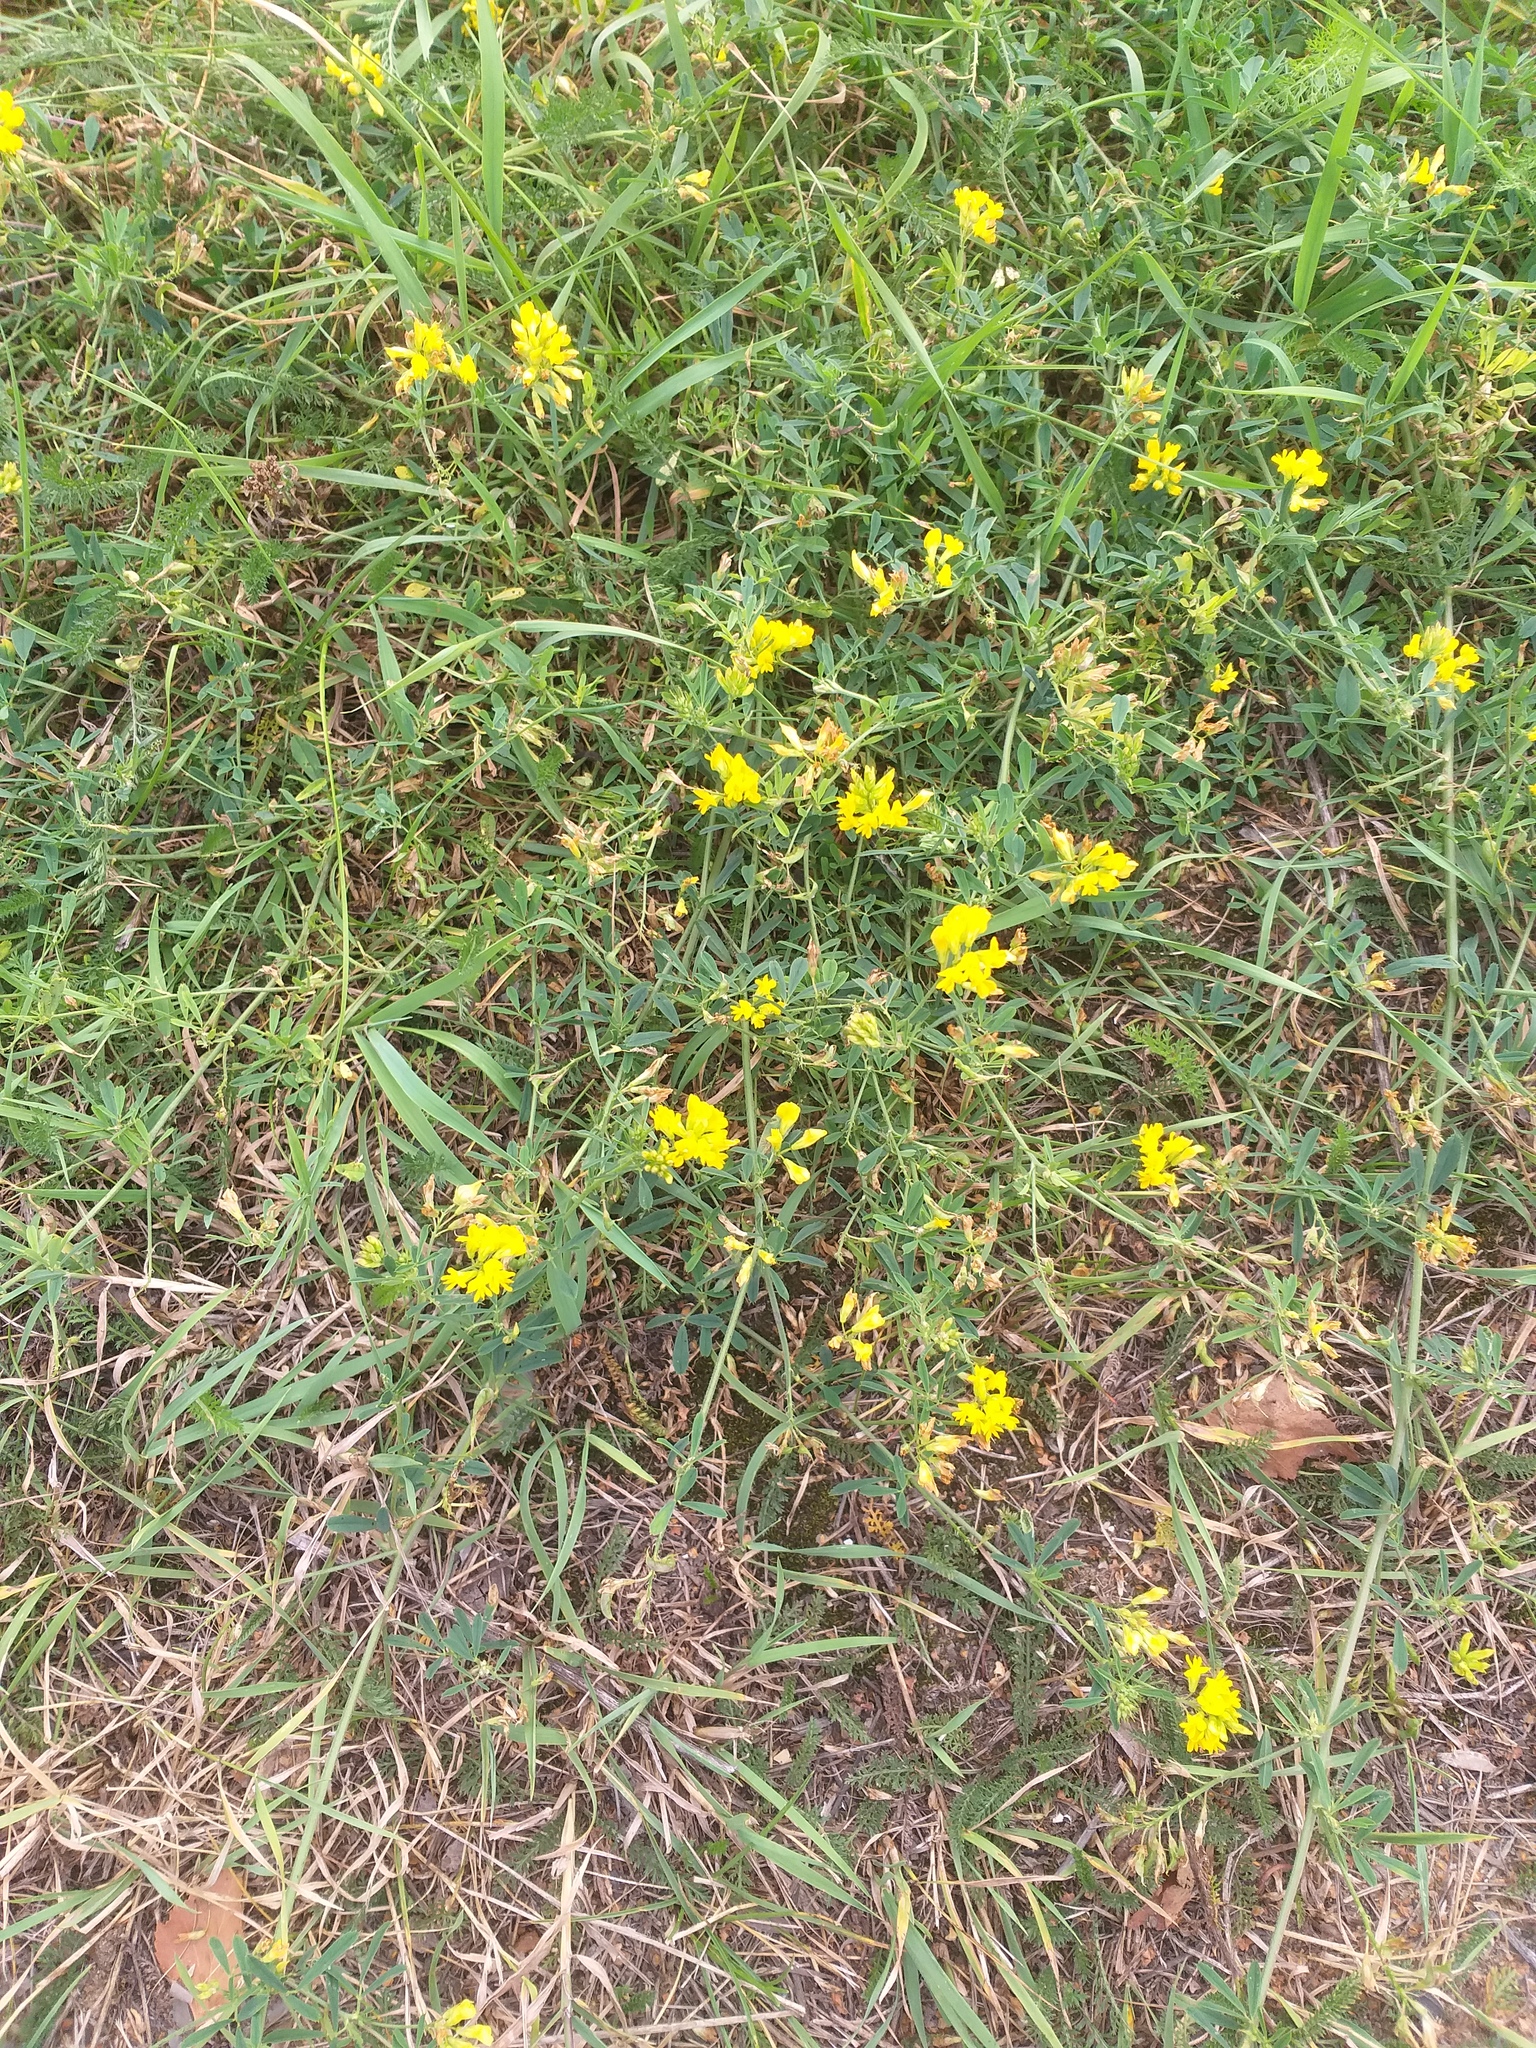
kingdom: Plantae
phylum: Tracheophyta
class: Magnoliopsida
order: Fabales
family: Fabaceae
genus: Medicago
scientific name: Medicago falcata
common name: Sickle medick
